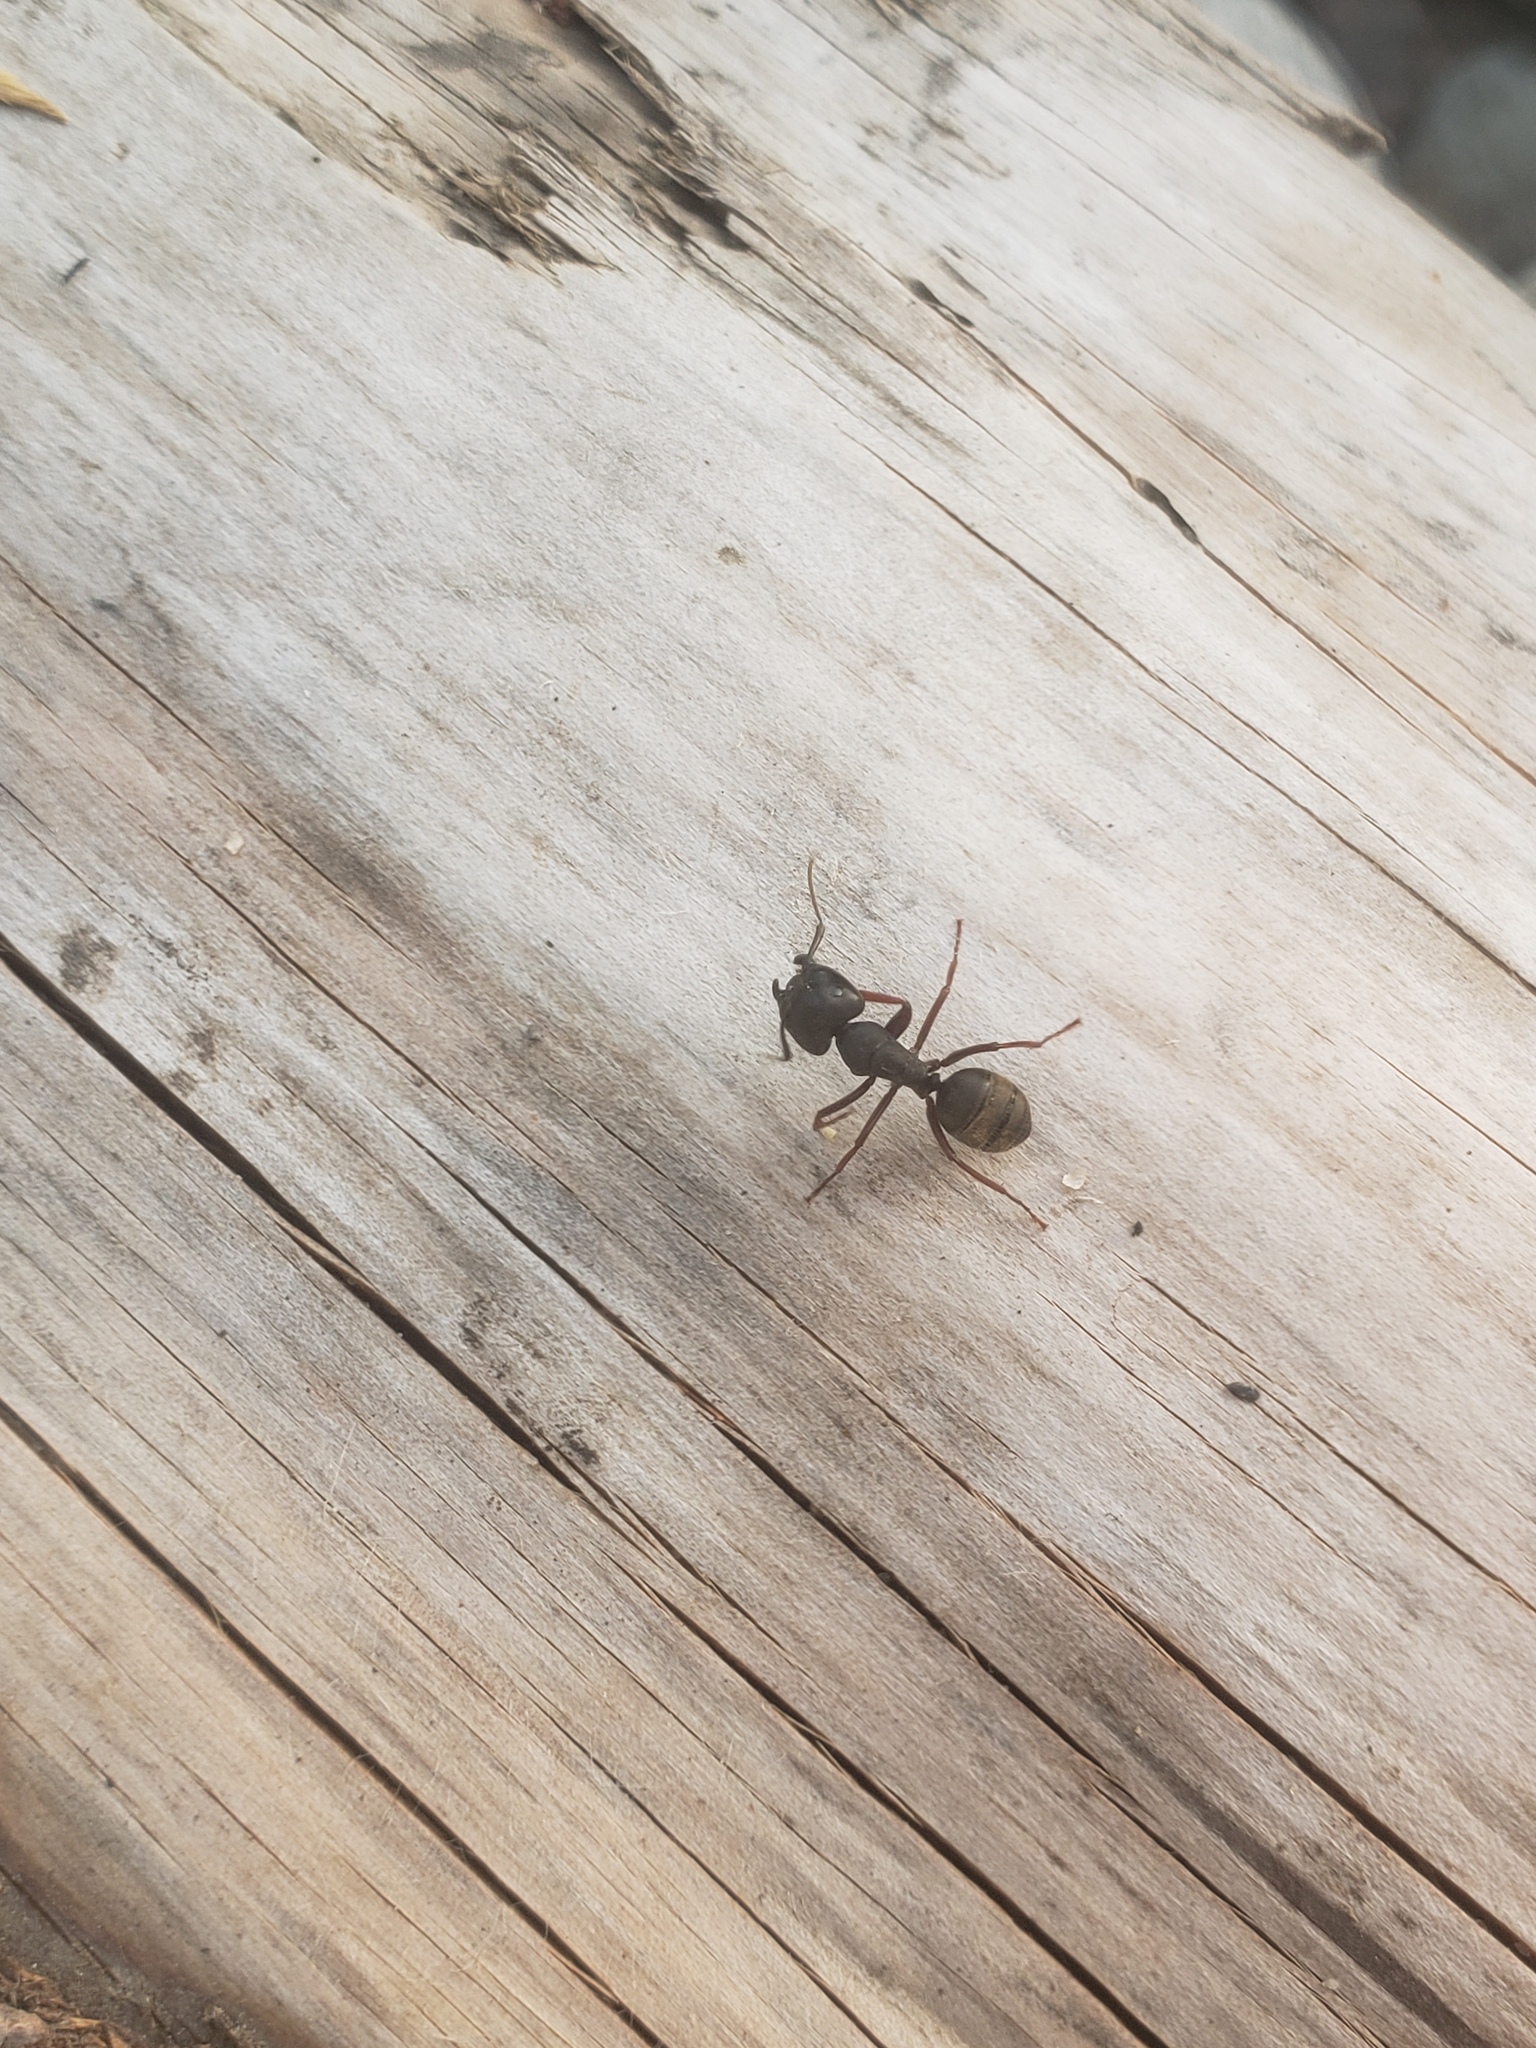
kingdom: Animalia
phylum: Arthropoda
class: Insecta
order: Hymenoptera
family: Formicidae
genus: Camponotus
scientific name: Camponotus modoc
